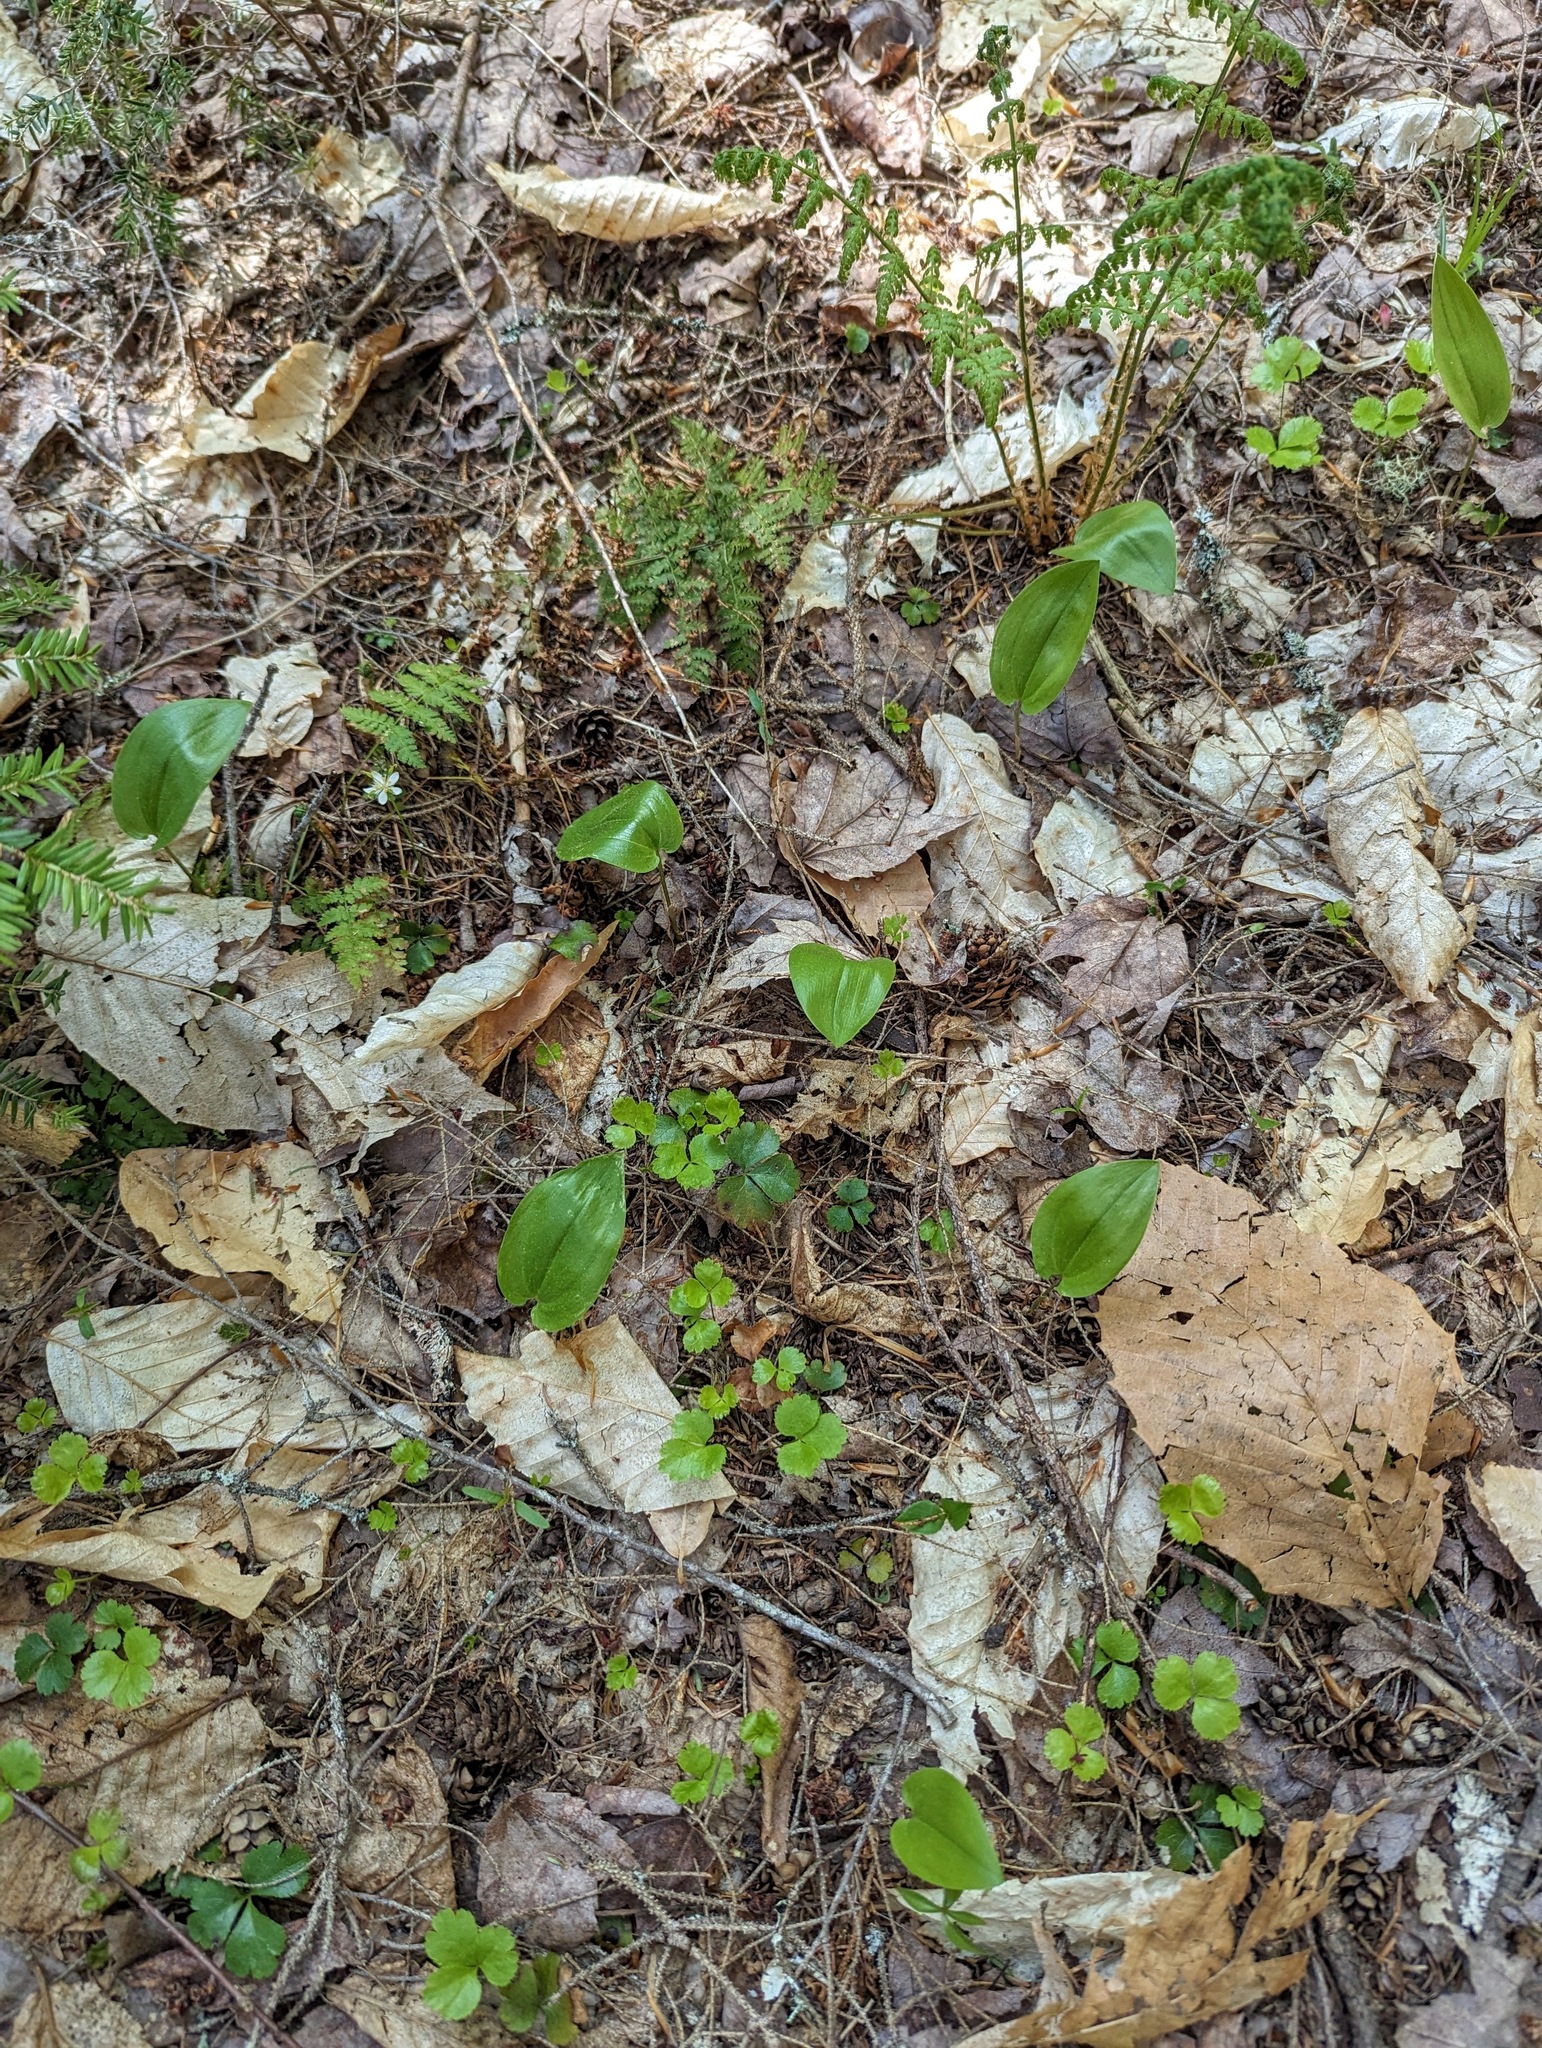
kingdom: Plantae
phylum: Tracheophyta
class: Magnoliopsida
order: Ranunculales
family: Ranunculaceae
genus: Coptis
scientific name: Coptis trifolia
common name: Canker-root
